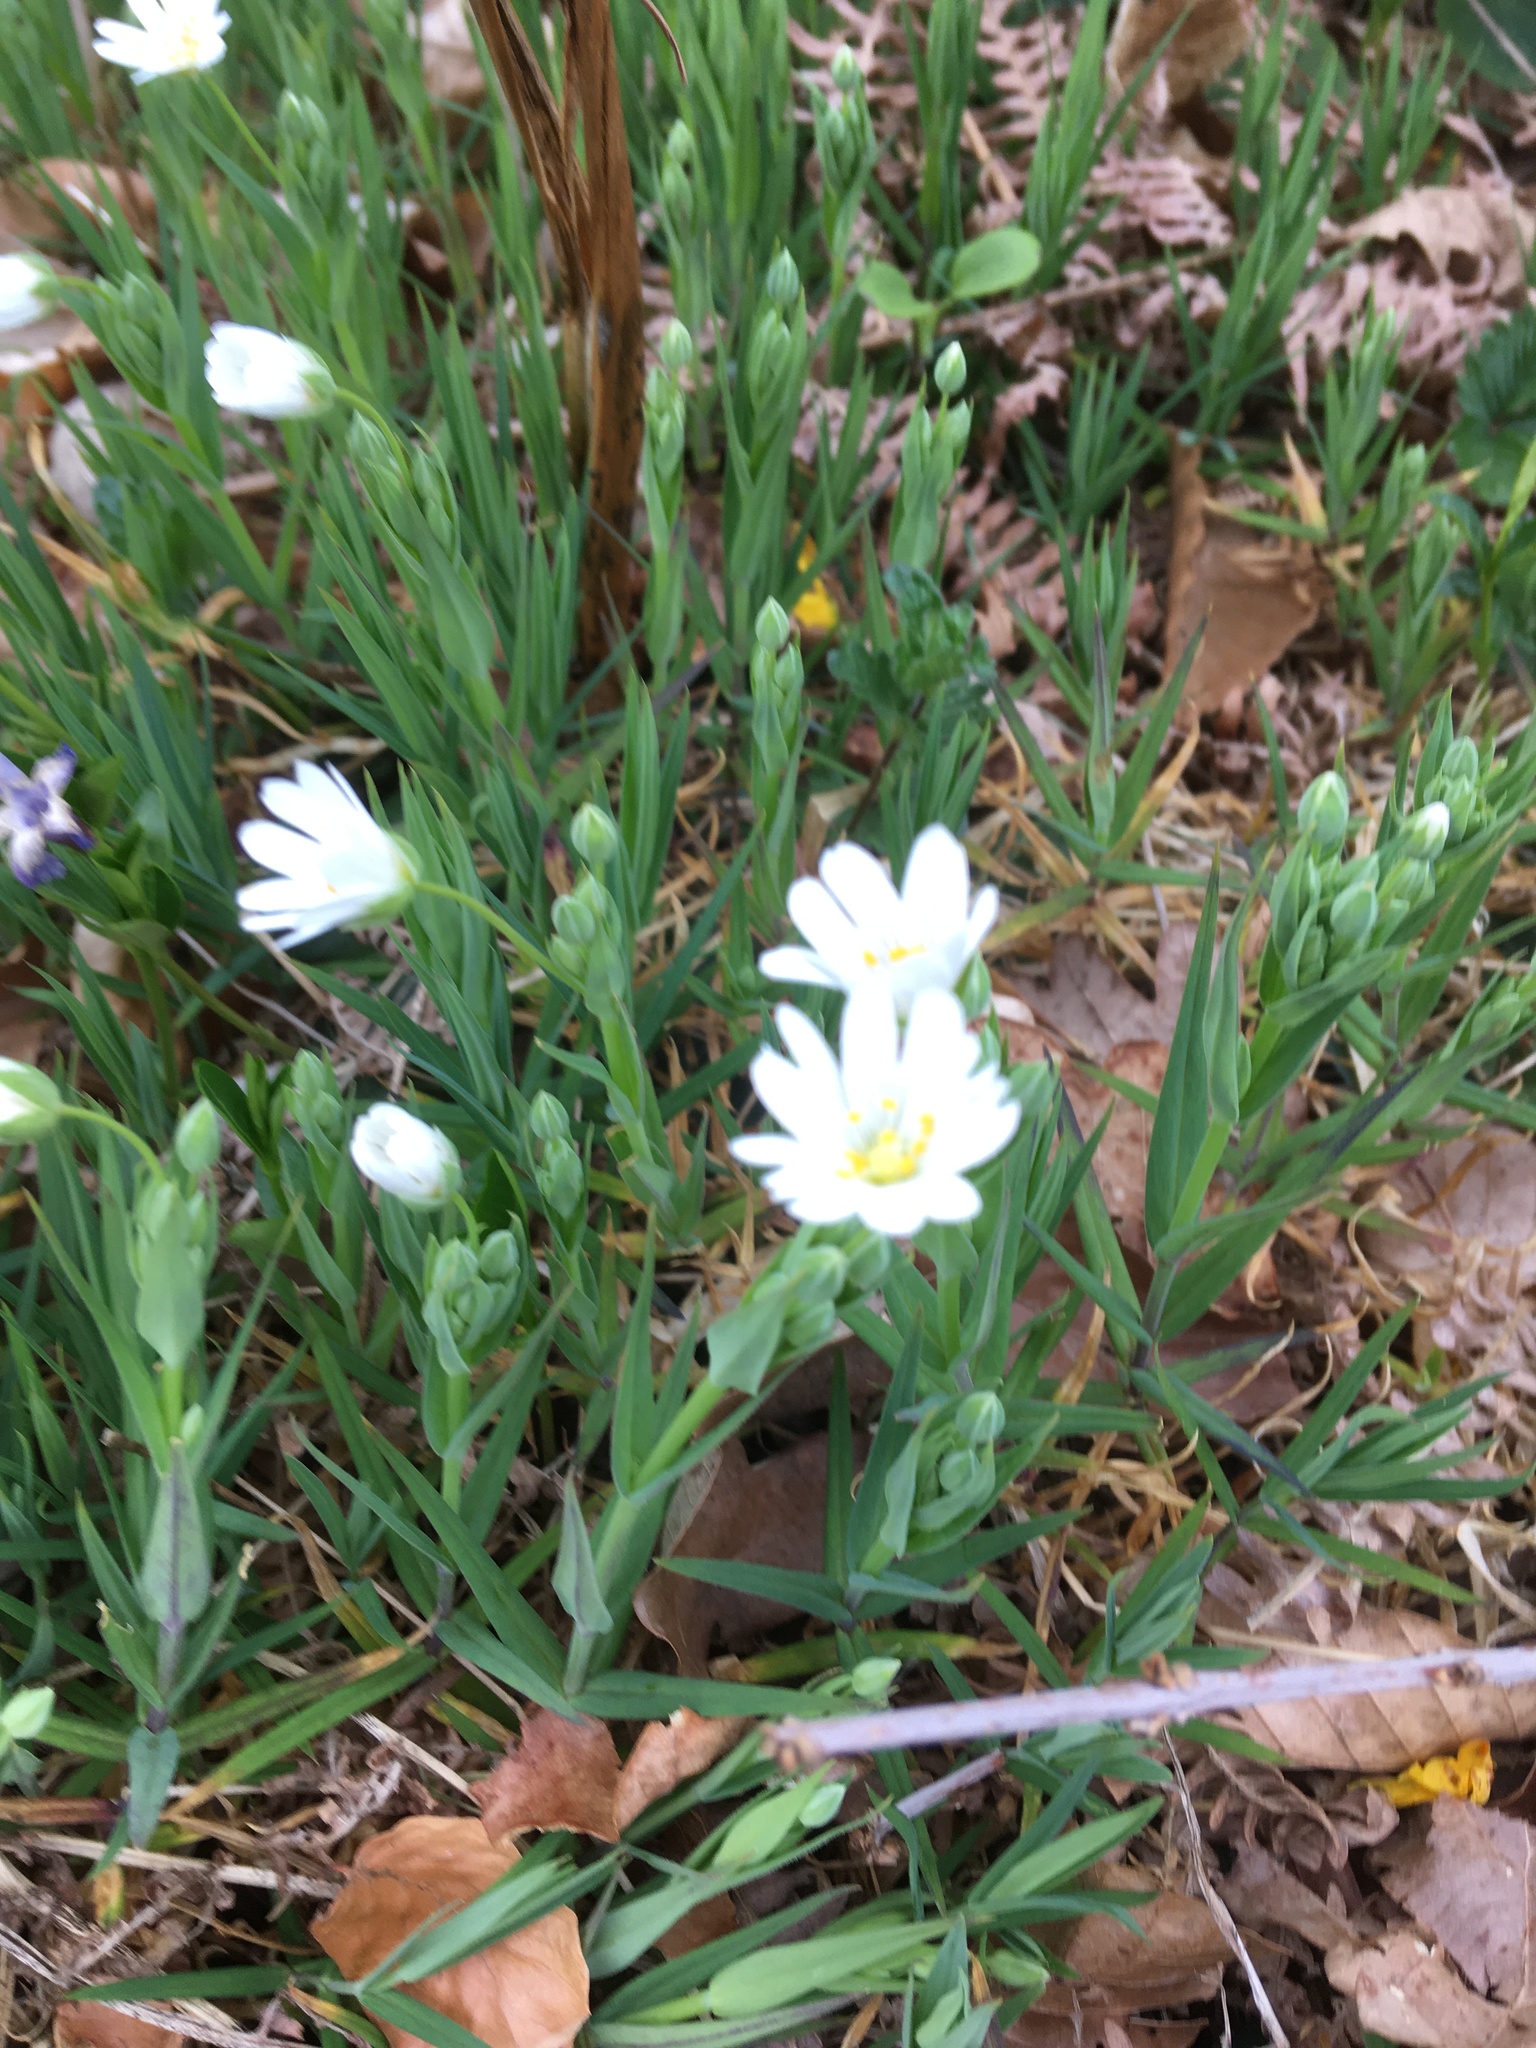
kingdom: Plantae
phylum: Tracheophyta
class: Magnoliopsida
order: Caryophyllales
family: Caryophyllaceae
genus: Rabelera
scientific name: Rabelera holostea
